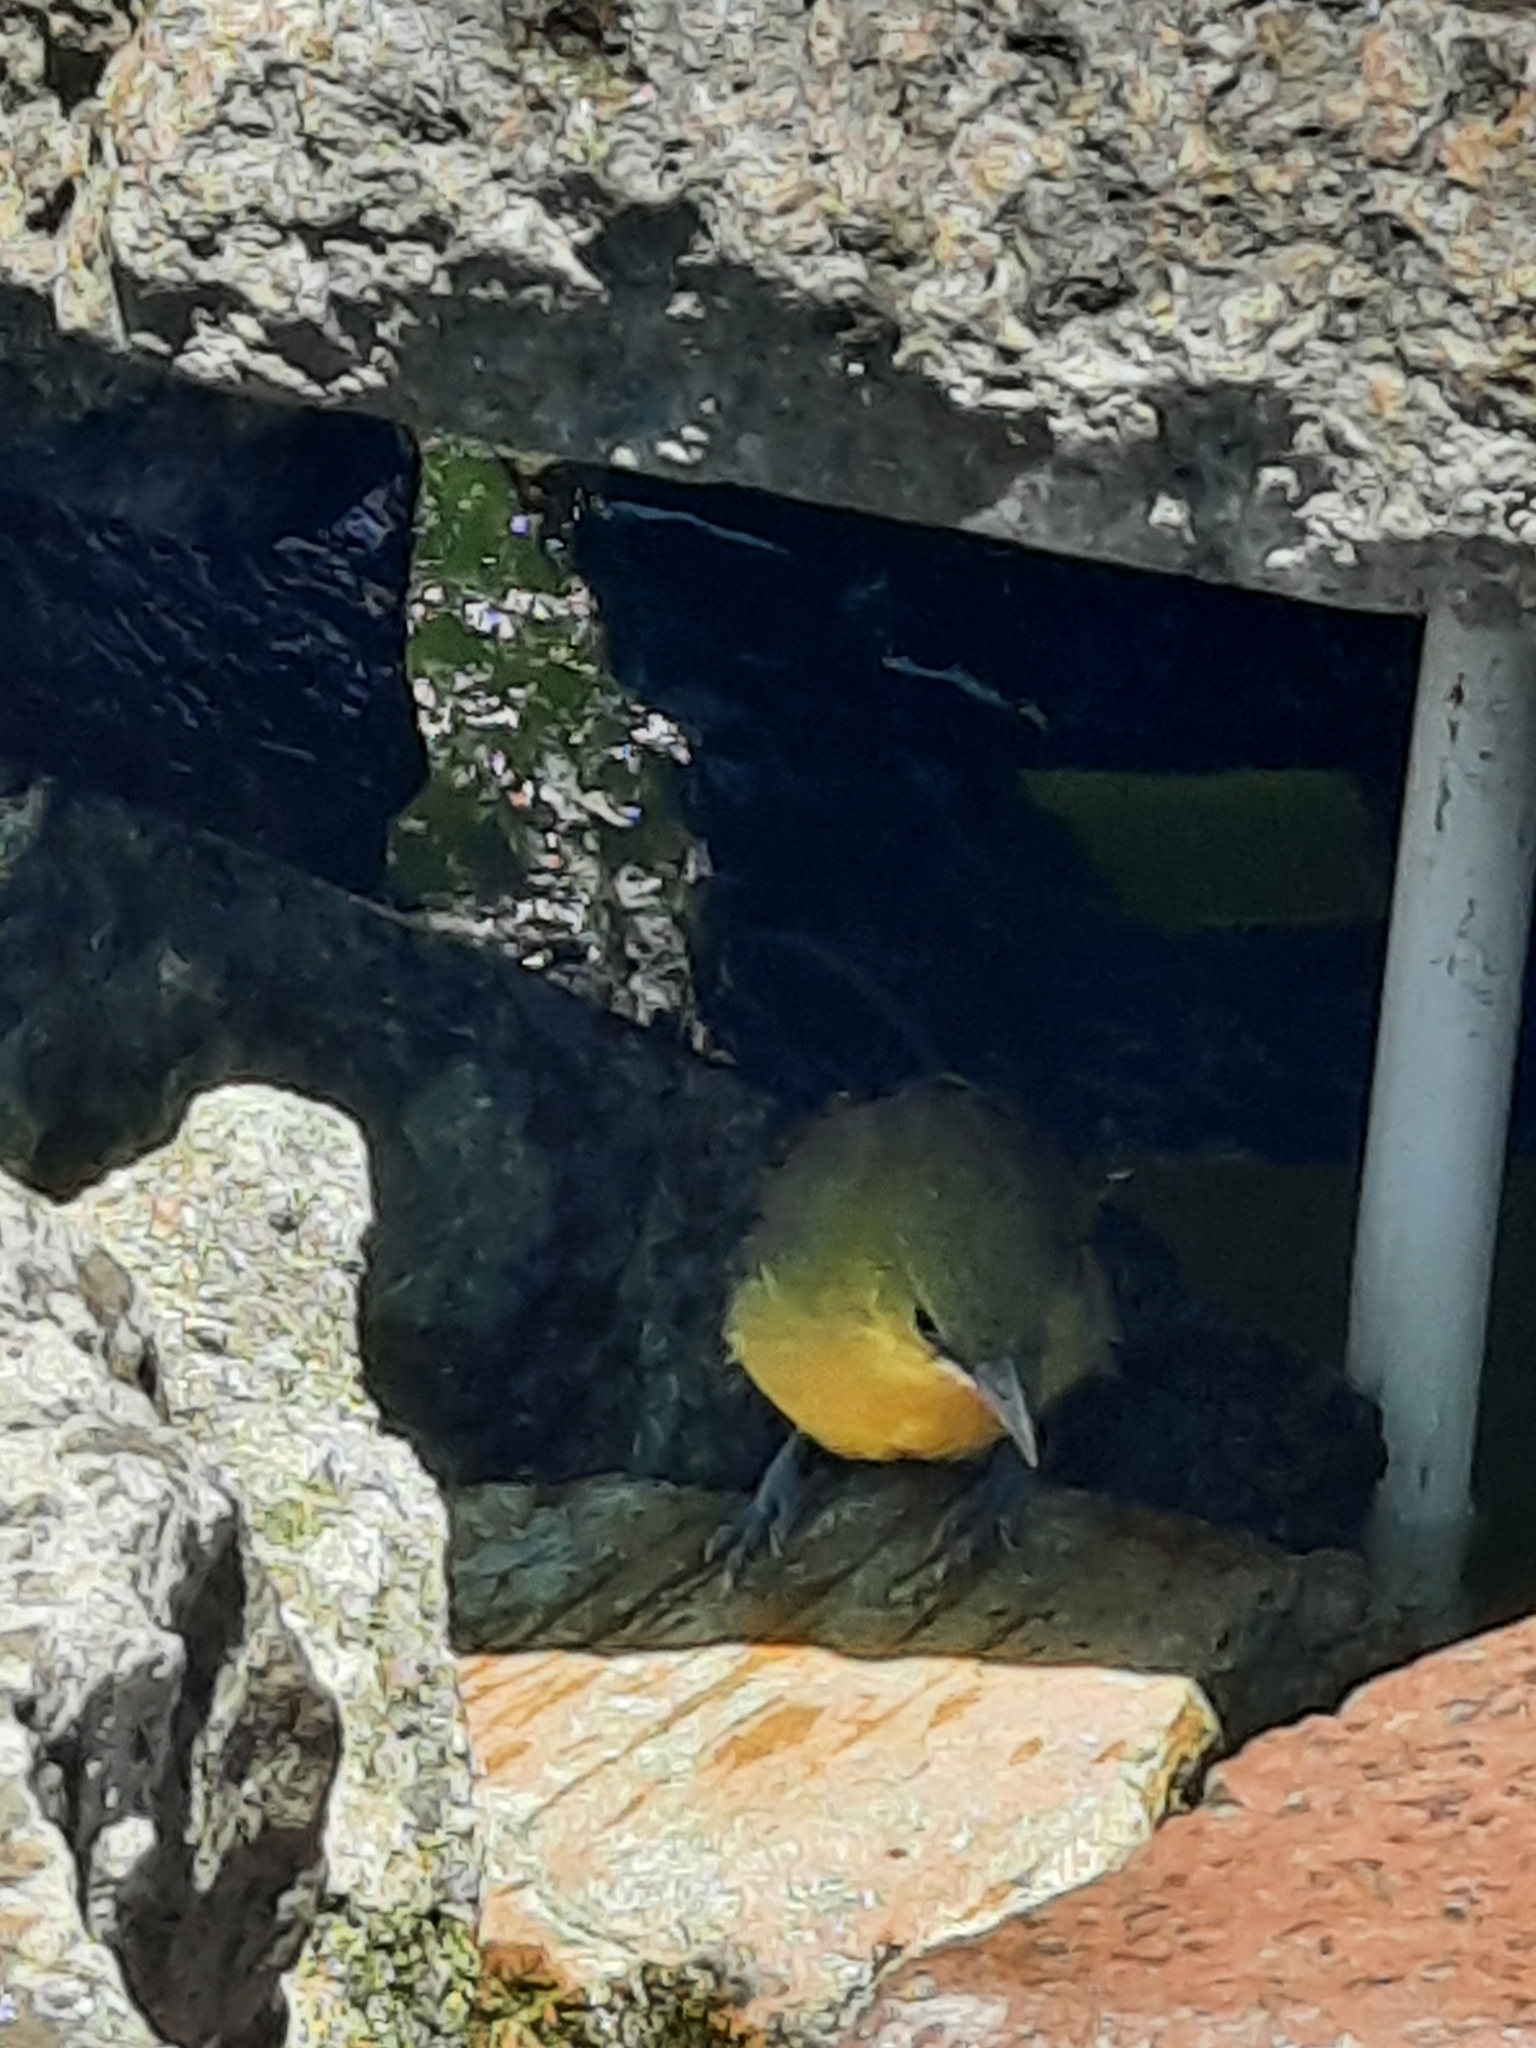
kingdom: Animalia
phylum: Chordata
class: Aves
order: Passeriformes
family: Icteridae
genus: Icterus
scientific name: Icterus cucullatus
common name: Hooded oriole
